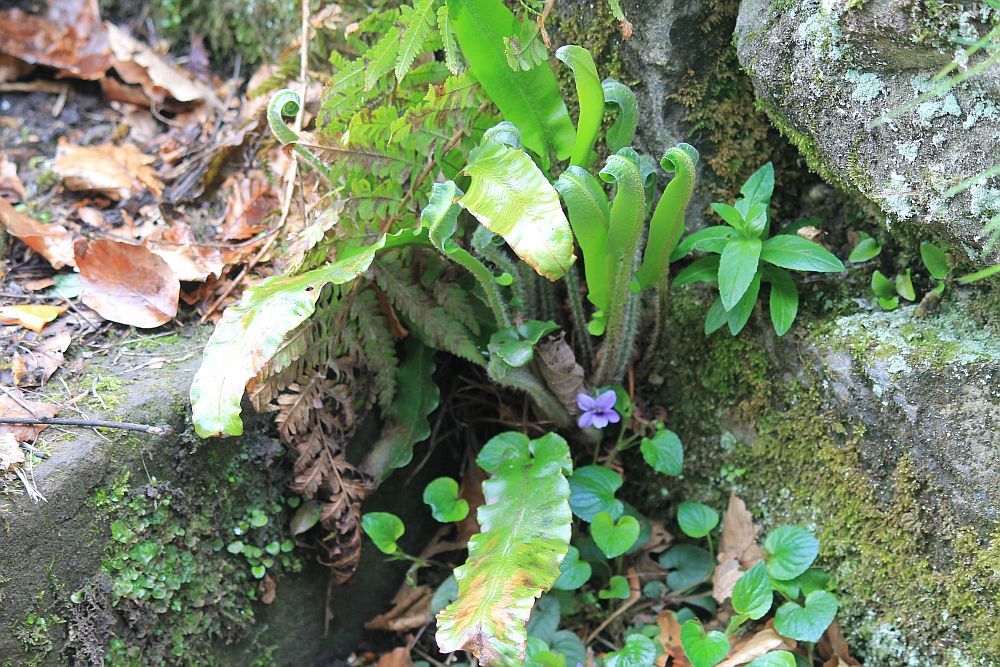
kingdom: Plantae
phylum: Tracheophyta
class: Polypodiopsida
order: Polypodiales
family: Aspleniaceae
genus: Asplenium
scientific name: Asplenium scolopendrium
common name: Hart's-tongue fern
